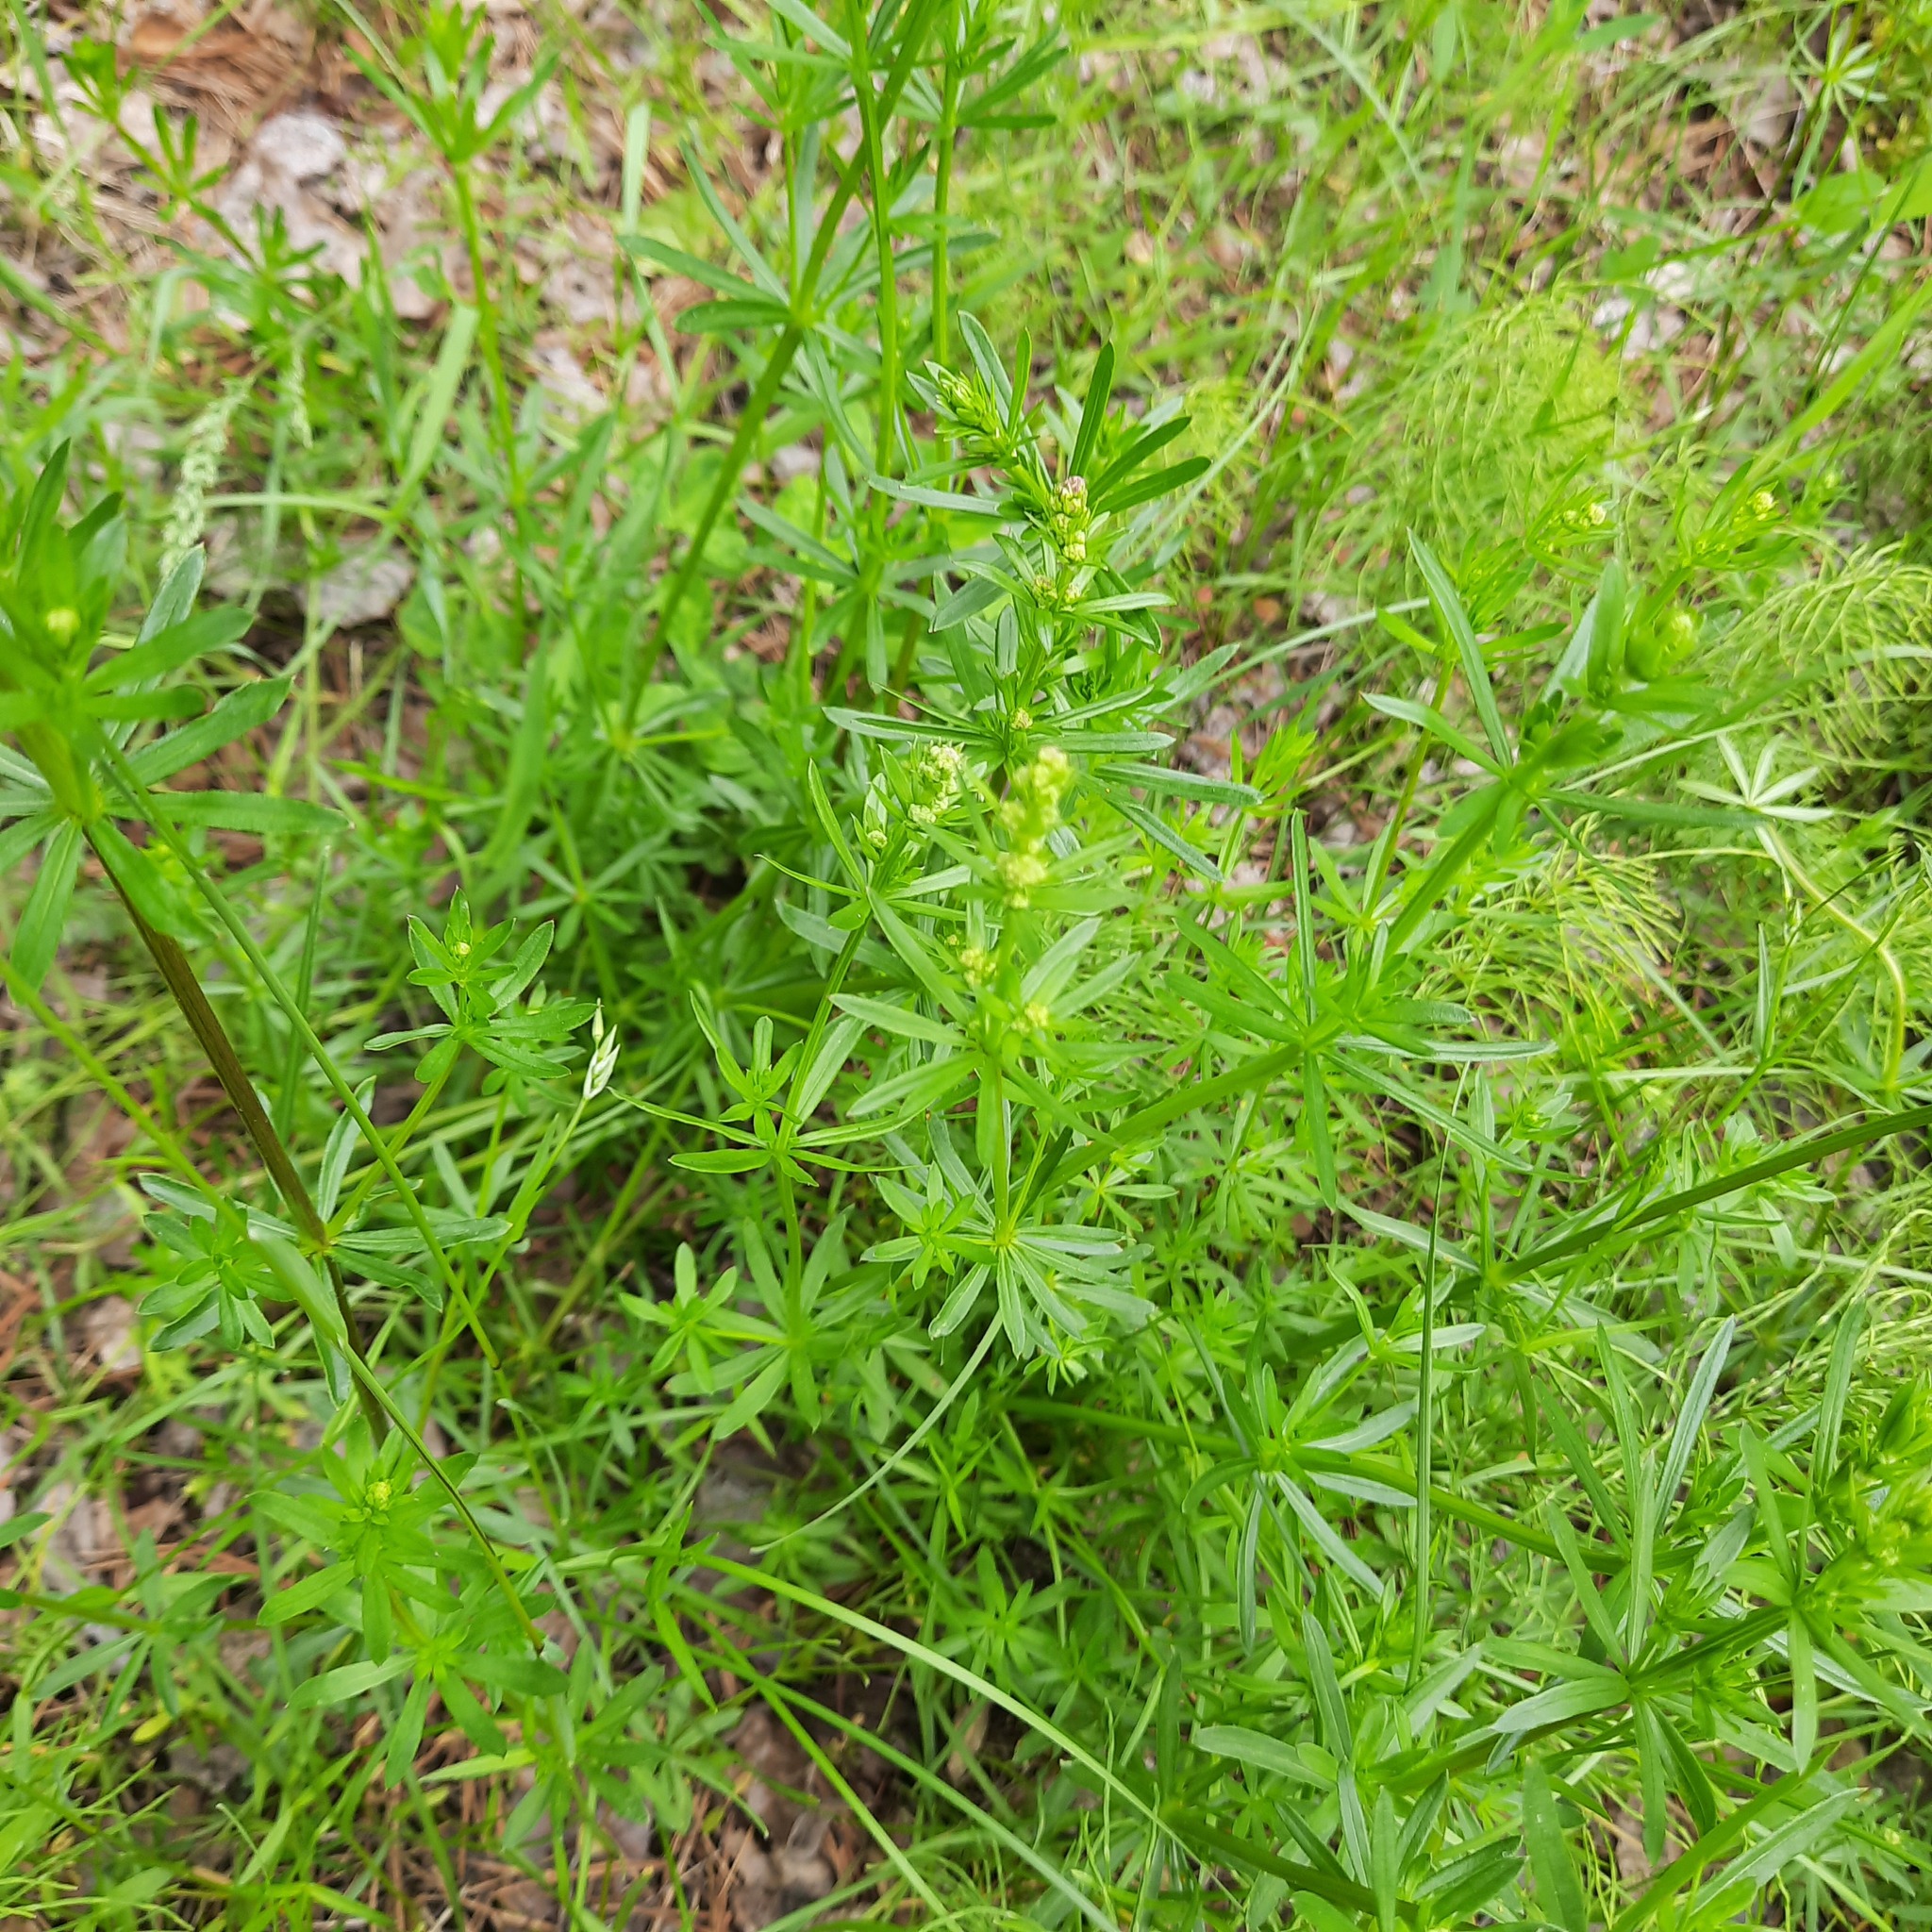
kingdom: Plantae
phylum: Tracheophyta
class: Magnoliopsida
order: Gentianales
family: Rubiaceae
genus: Galium
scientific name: Galium mollugo
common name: Hedge bedstraw
